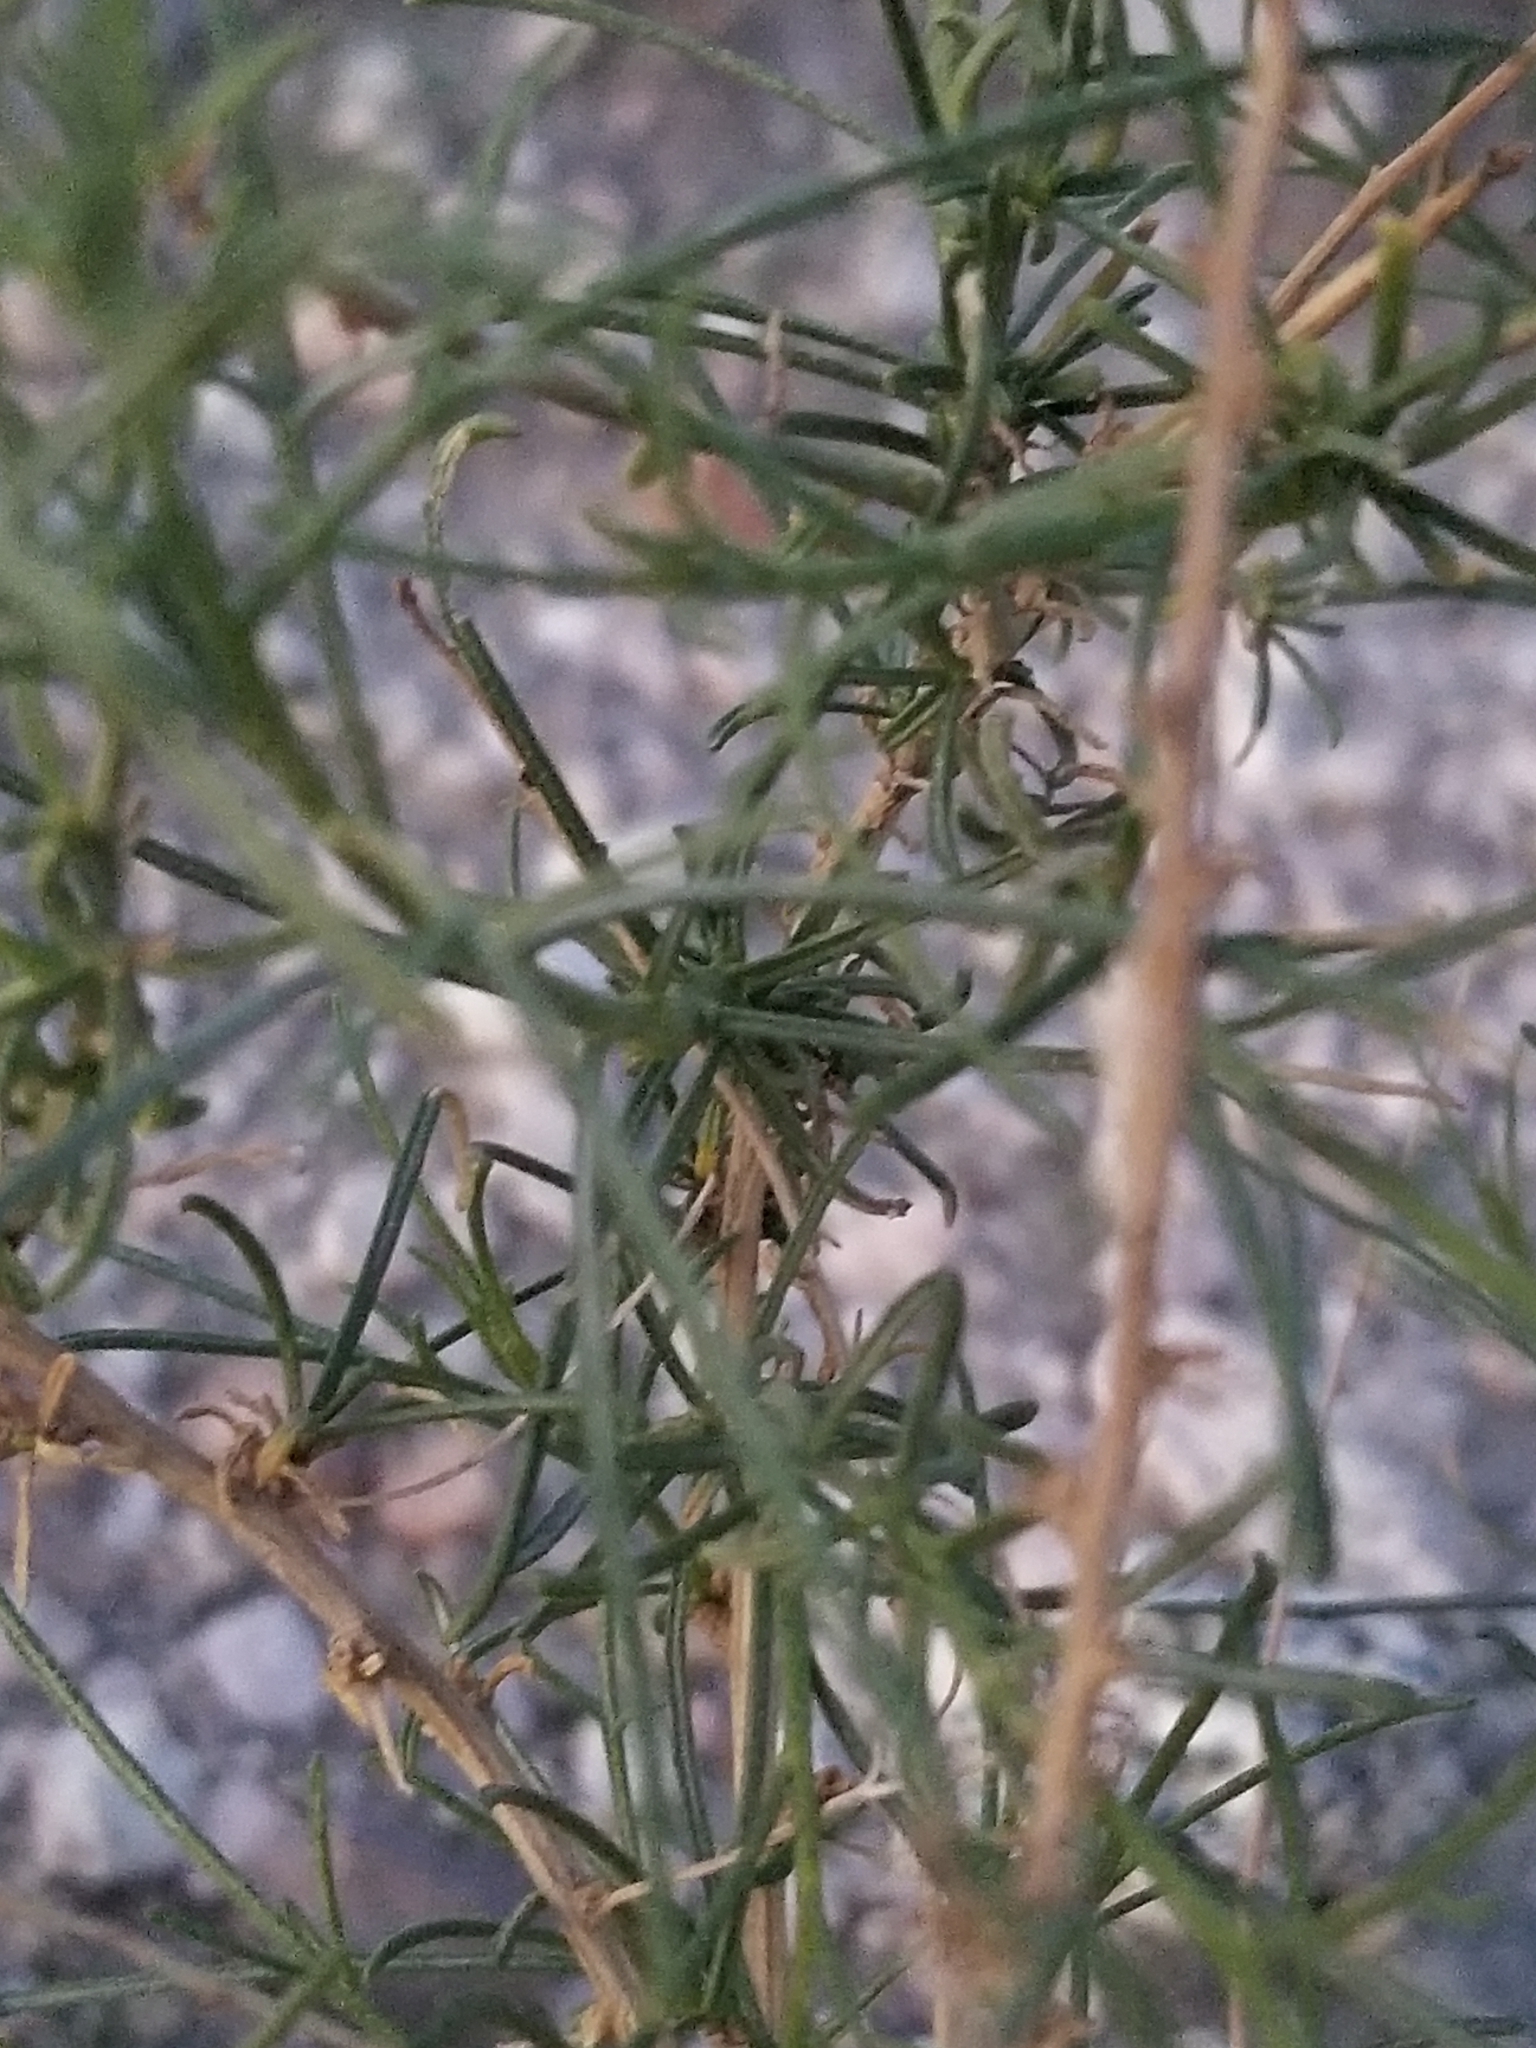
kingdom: Plantae
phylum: Tracheophyta
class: Magnoliopsida
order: Asterales
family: Asteraceae
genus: Ambrosia
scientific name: Ambrosia salsola
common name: Burrobrush
